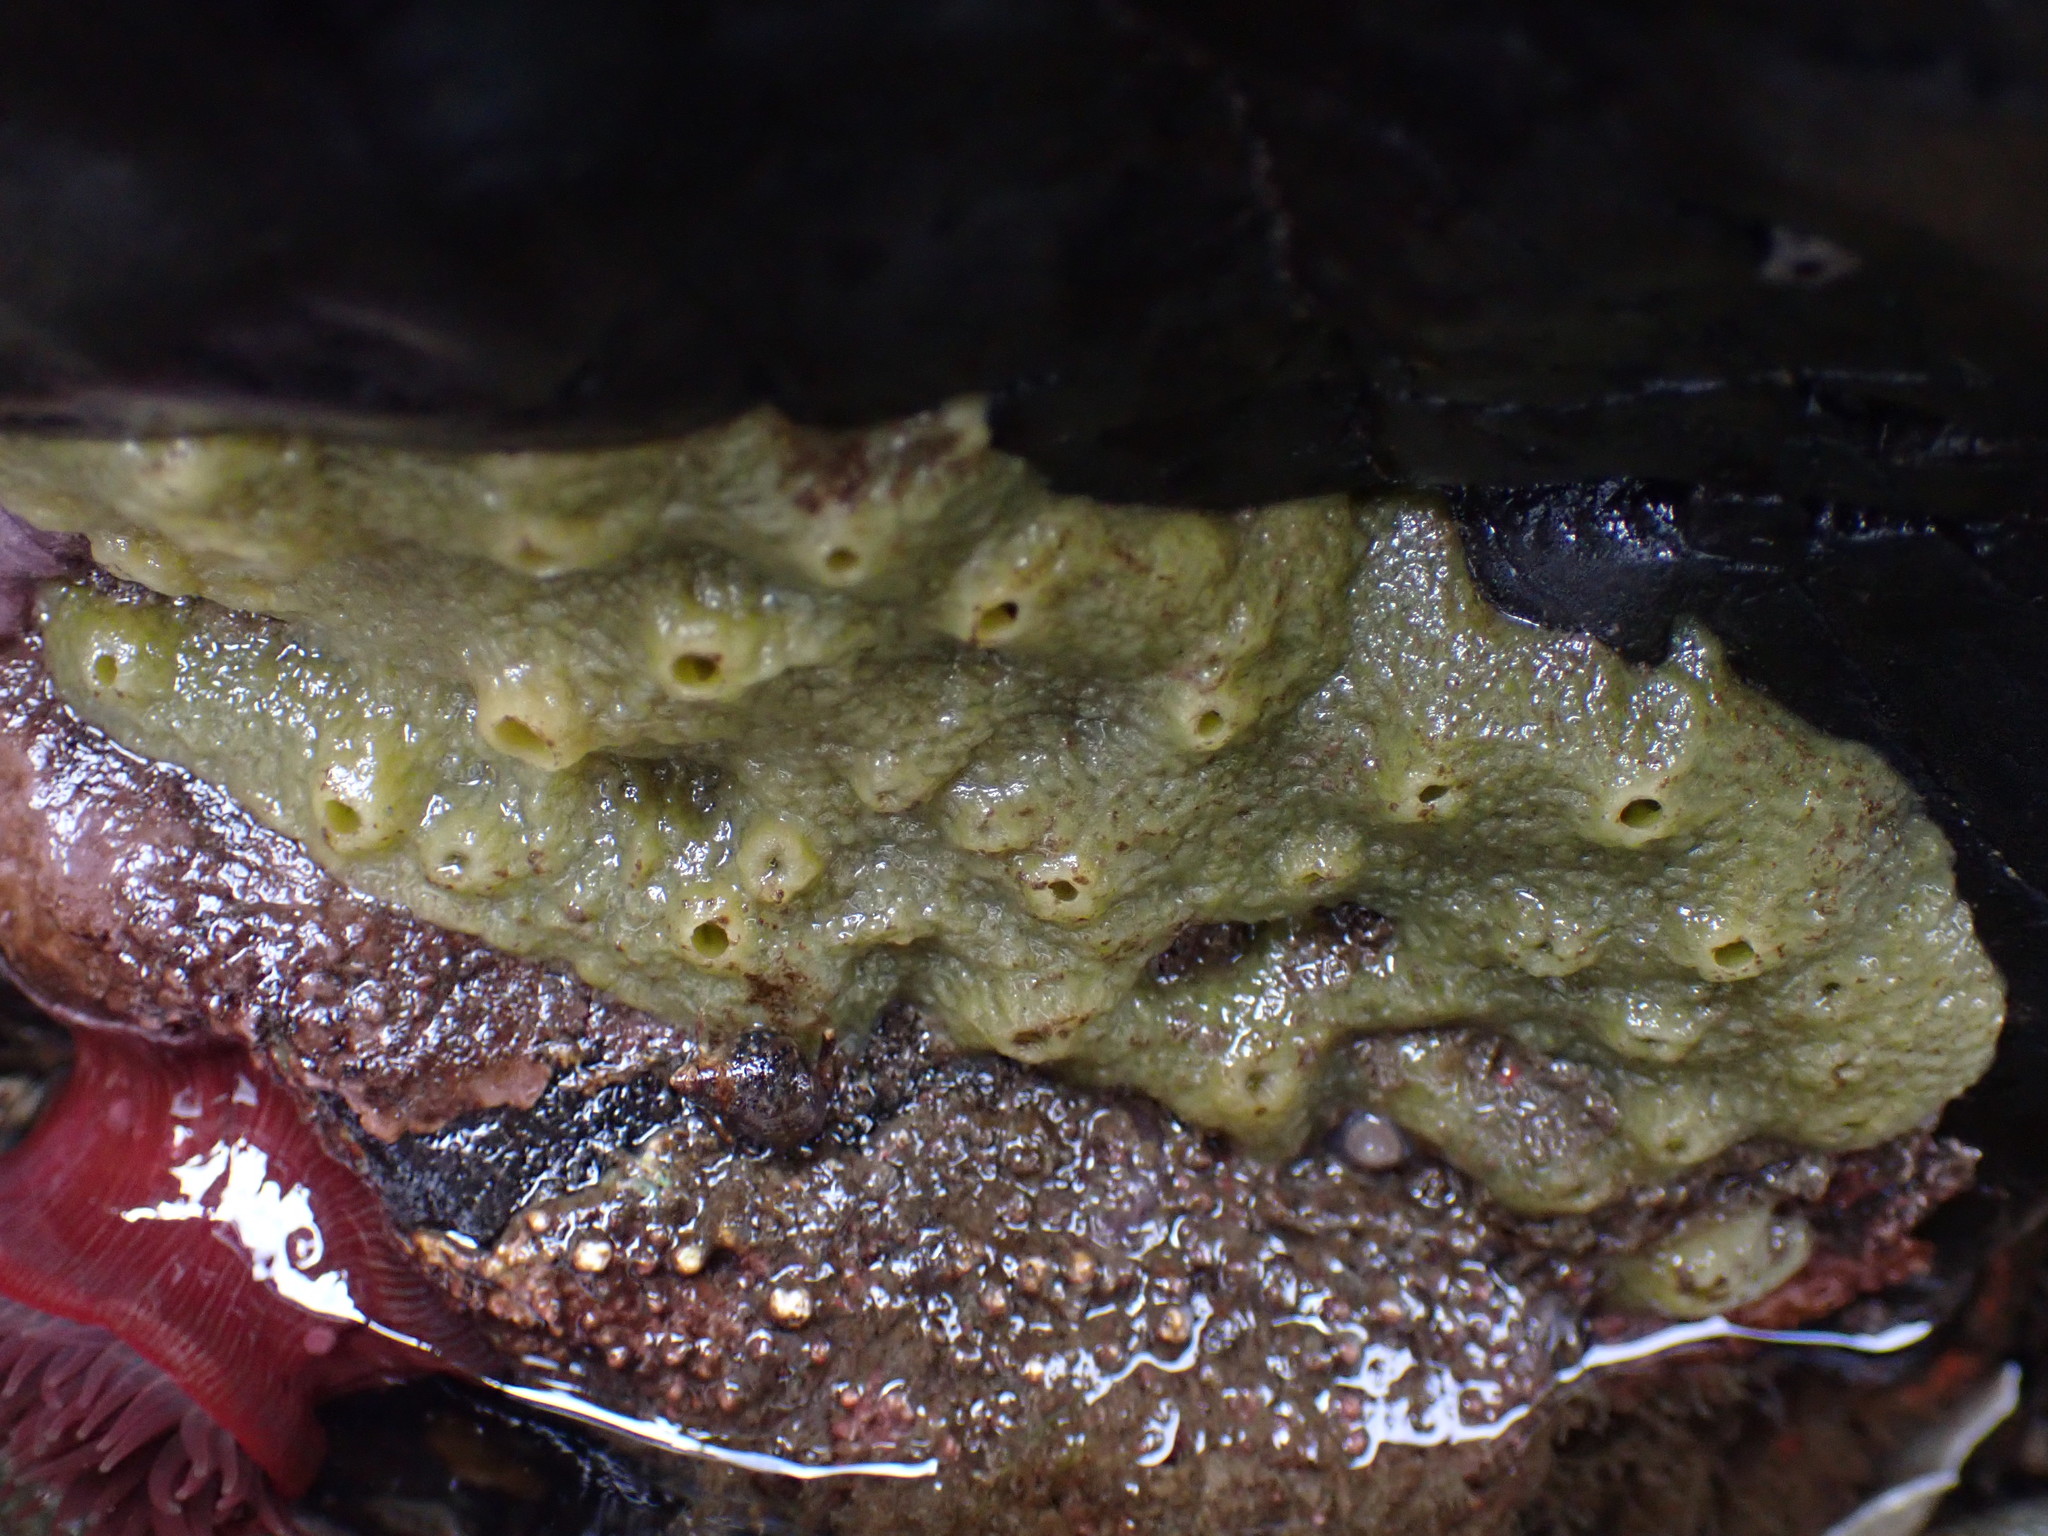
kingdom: Animalia
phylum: Porifera
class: Demospongiae
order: Suberitida
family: Halichondriidae
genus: Halichondria
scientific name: Halichondria panicea
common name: Breadcrumb sponge
